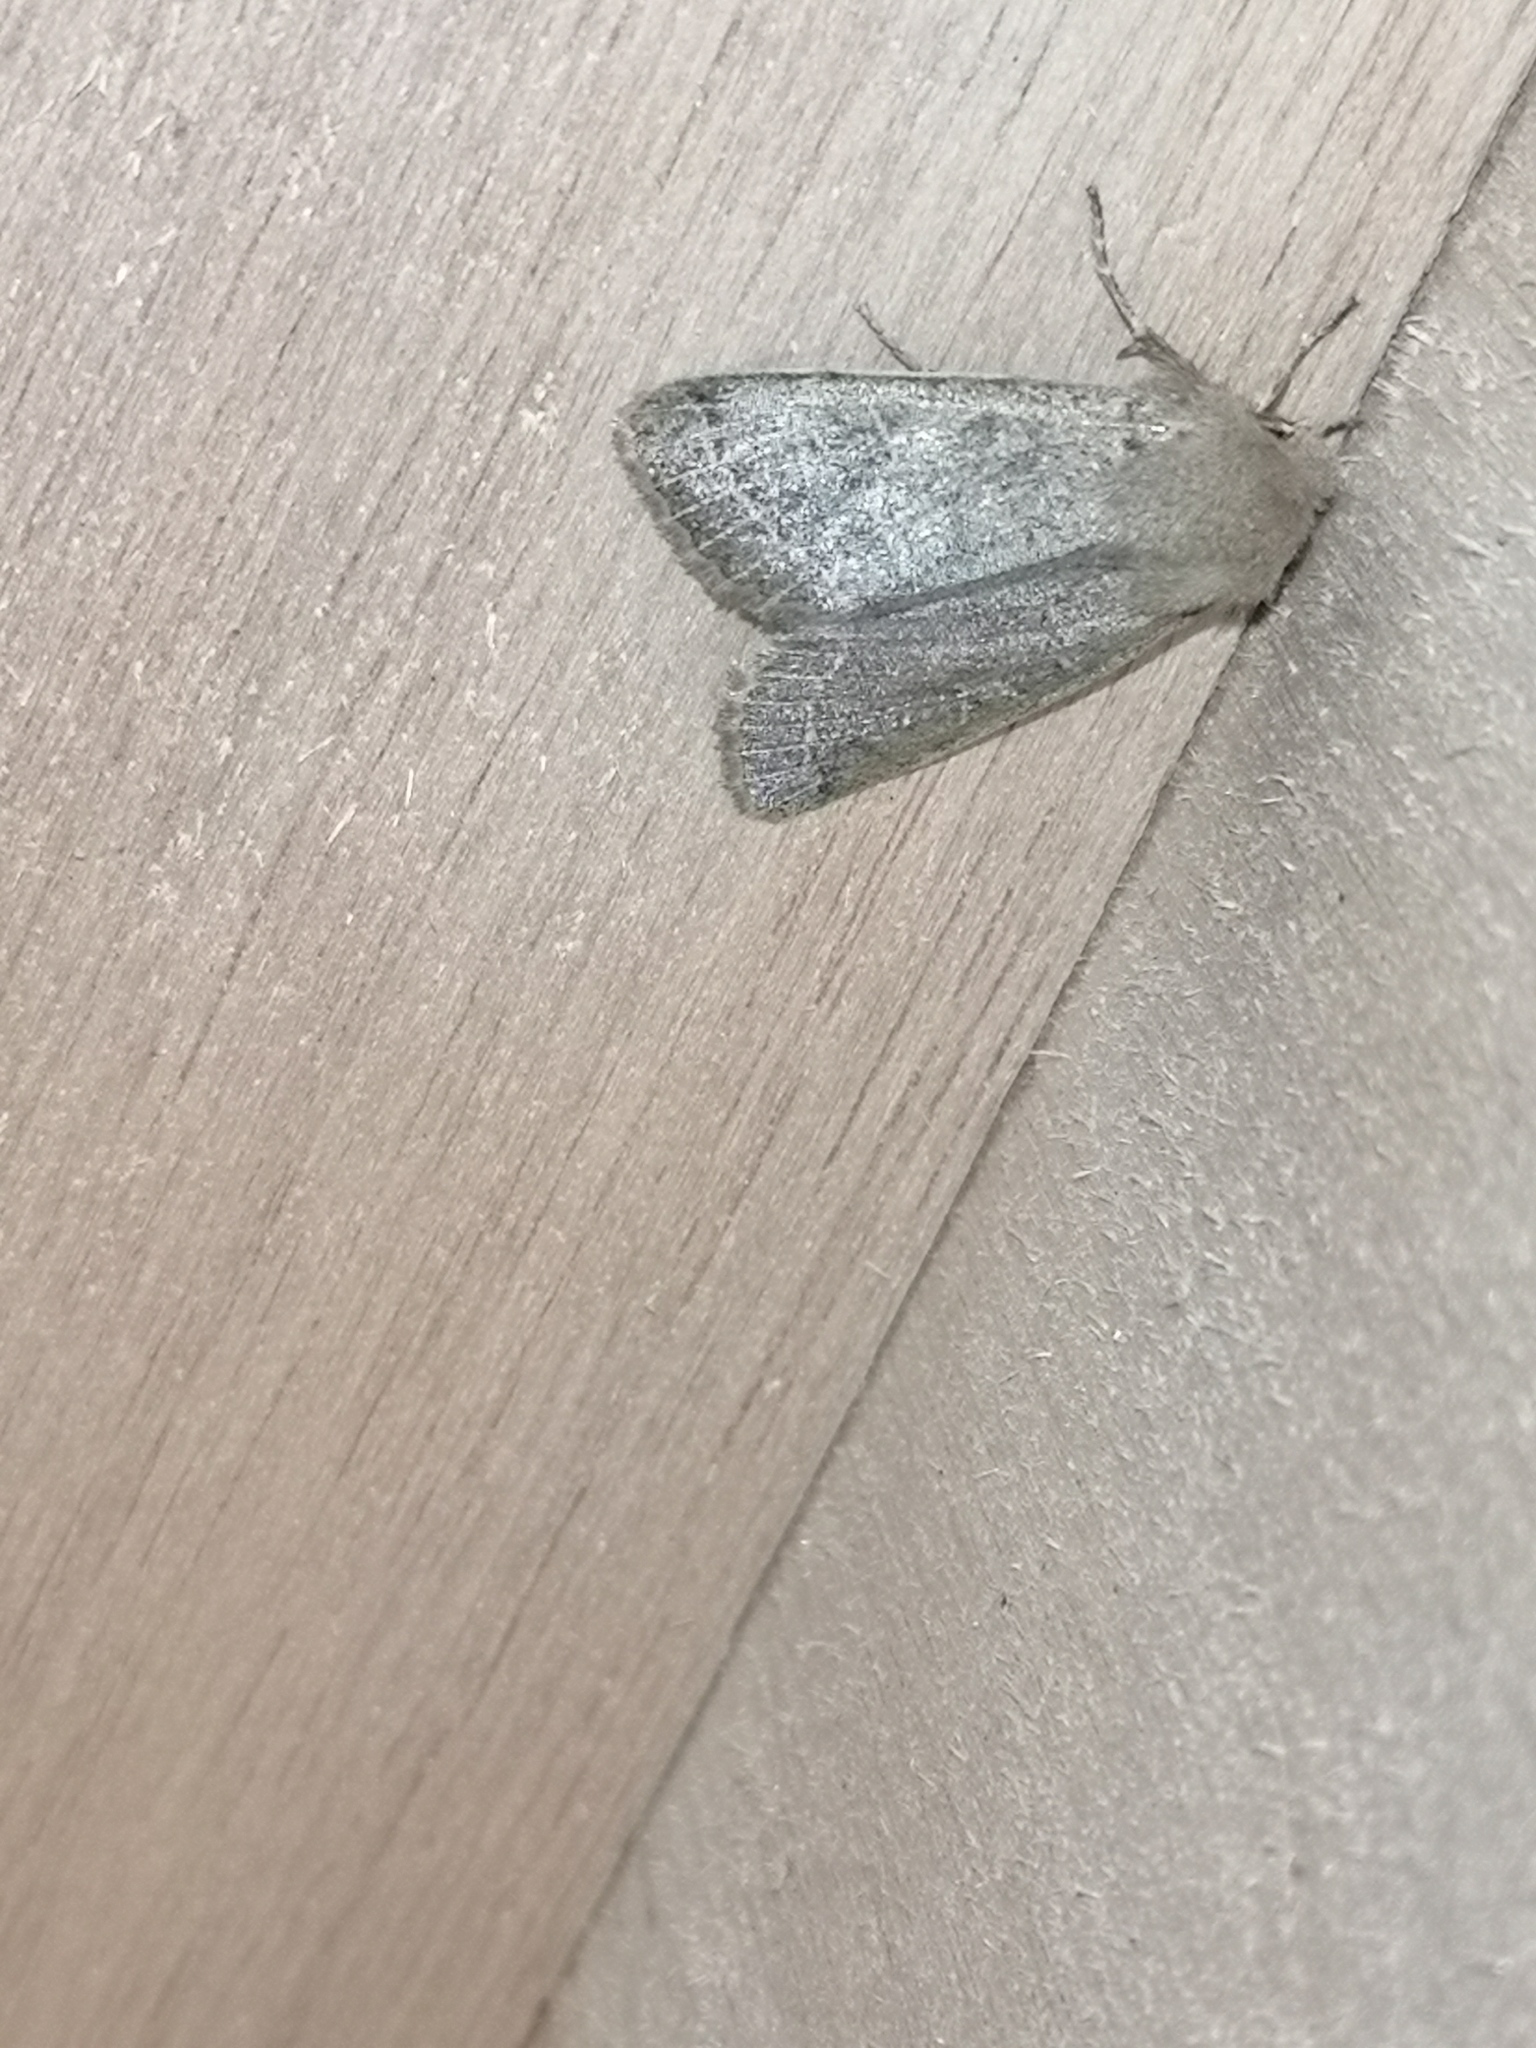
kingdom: Animalia
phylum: Arthropoda
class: Insecta
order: Lepidoptera
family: Noctuidae
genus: Orthosia
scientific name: Orthosia cerasi
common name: Common quaker
